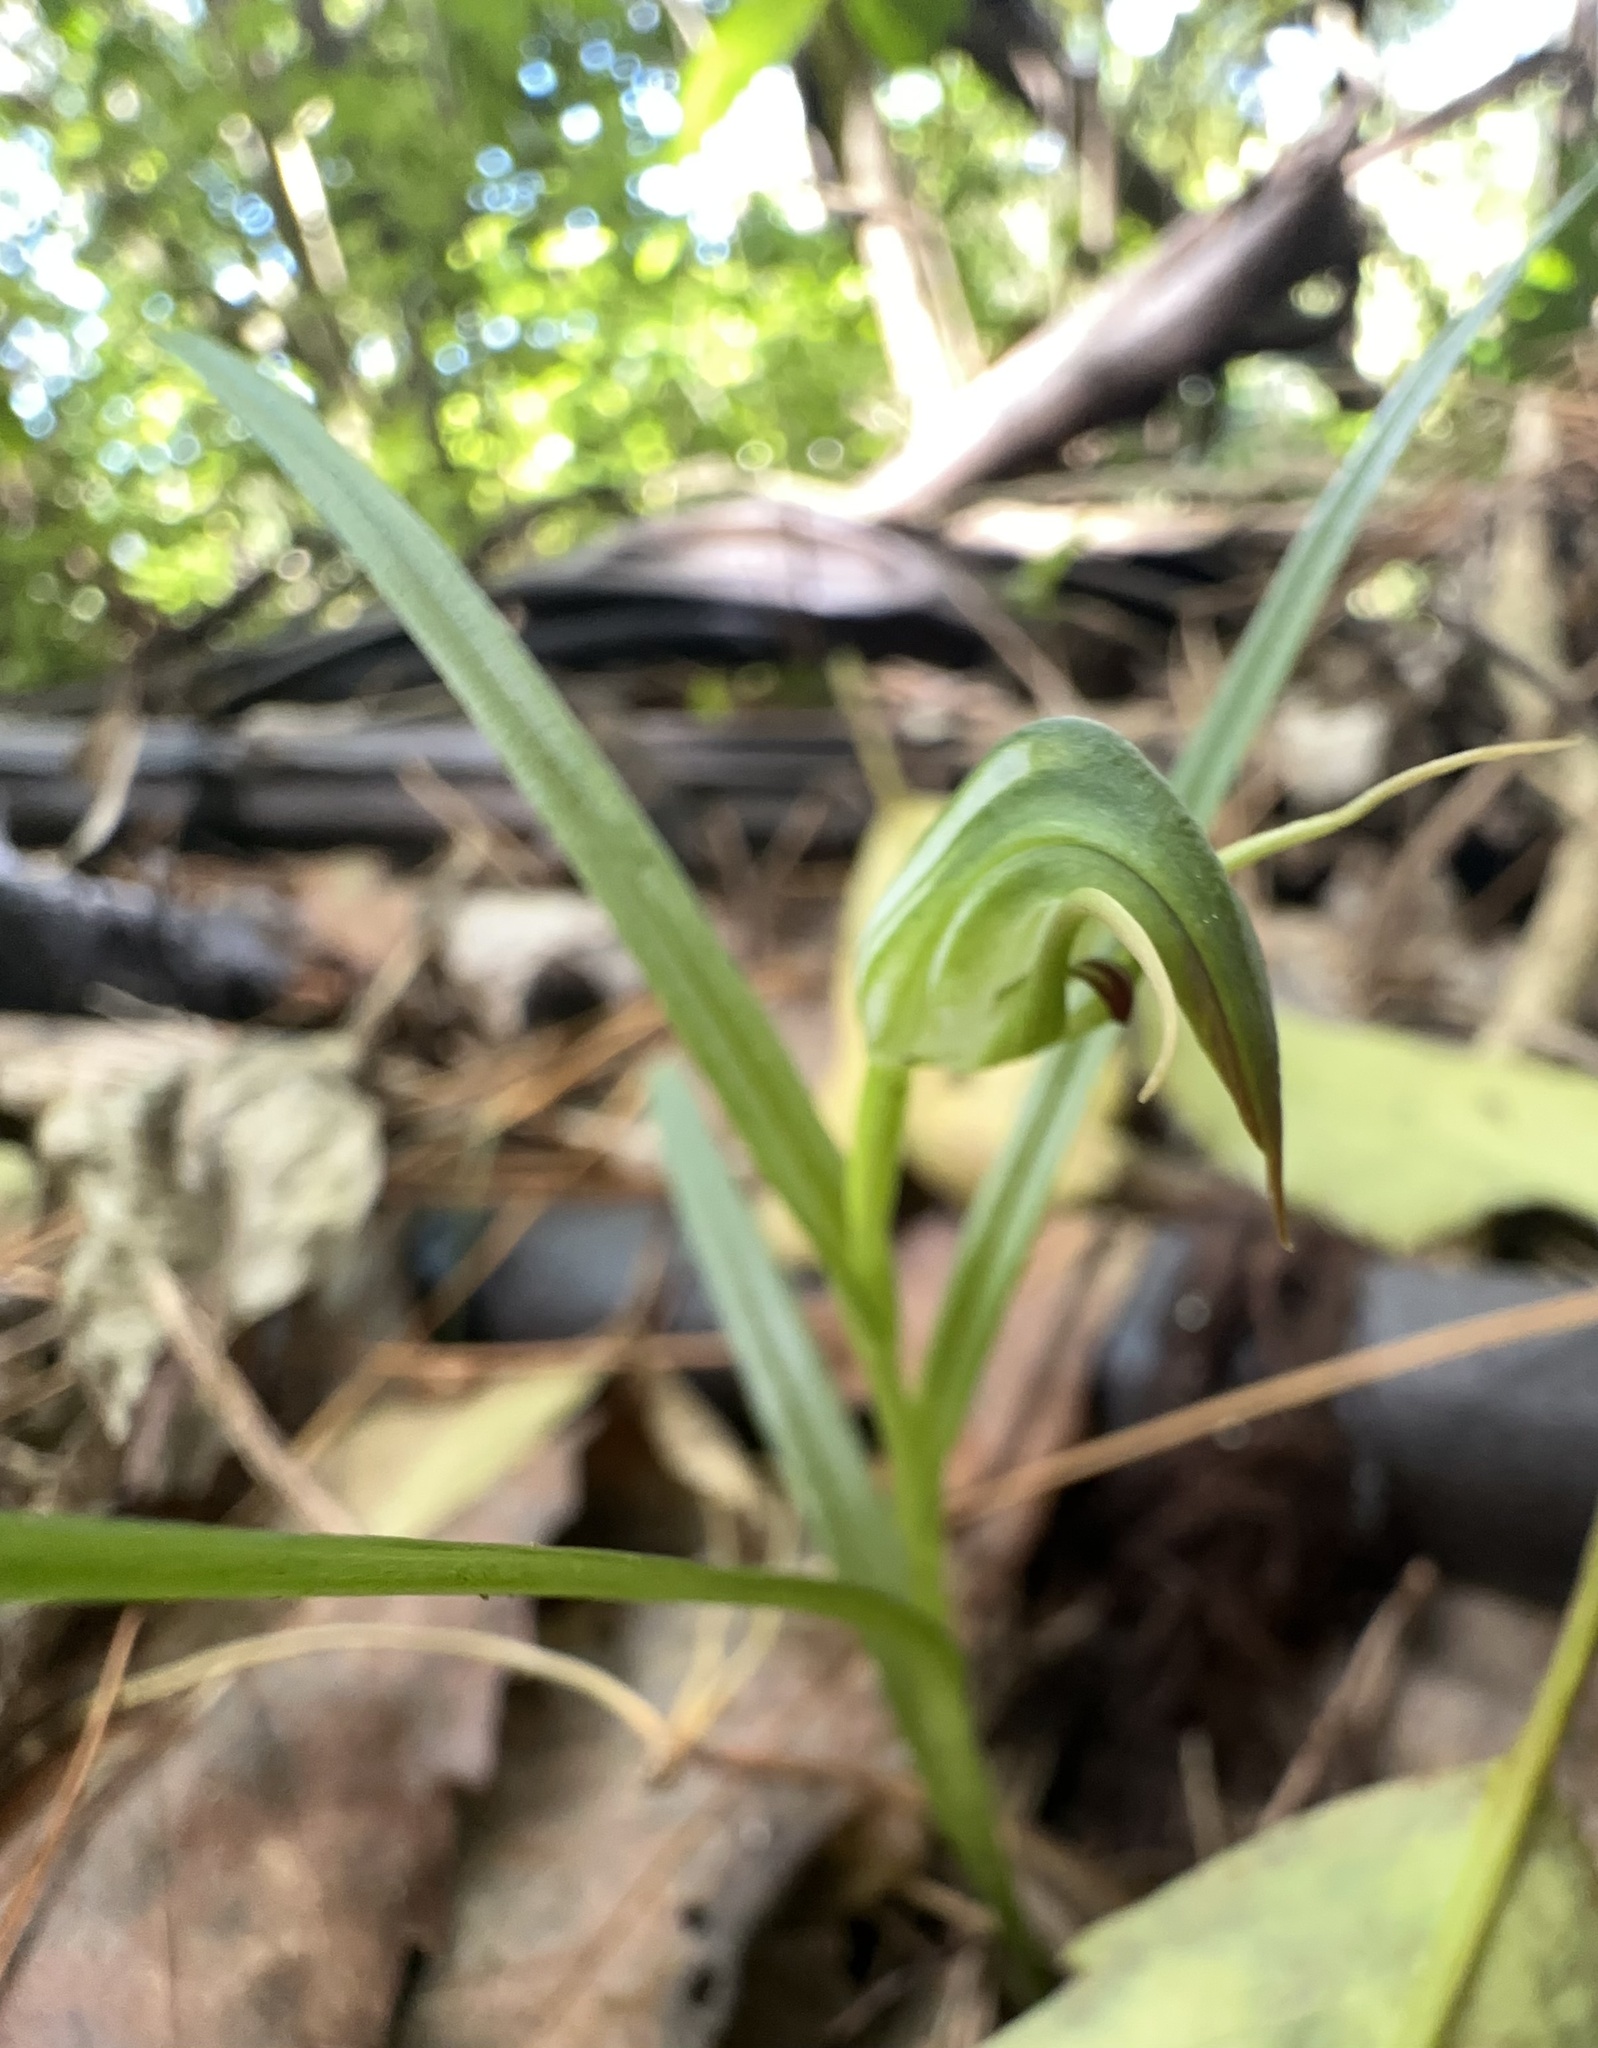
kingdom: Plantae
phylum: Tracheophyta
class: Liliopsida
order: Asparagales
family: Orchidaceae
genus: Pterostylis
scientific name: Pterostylis graminea
